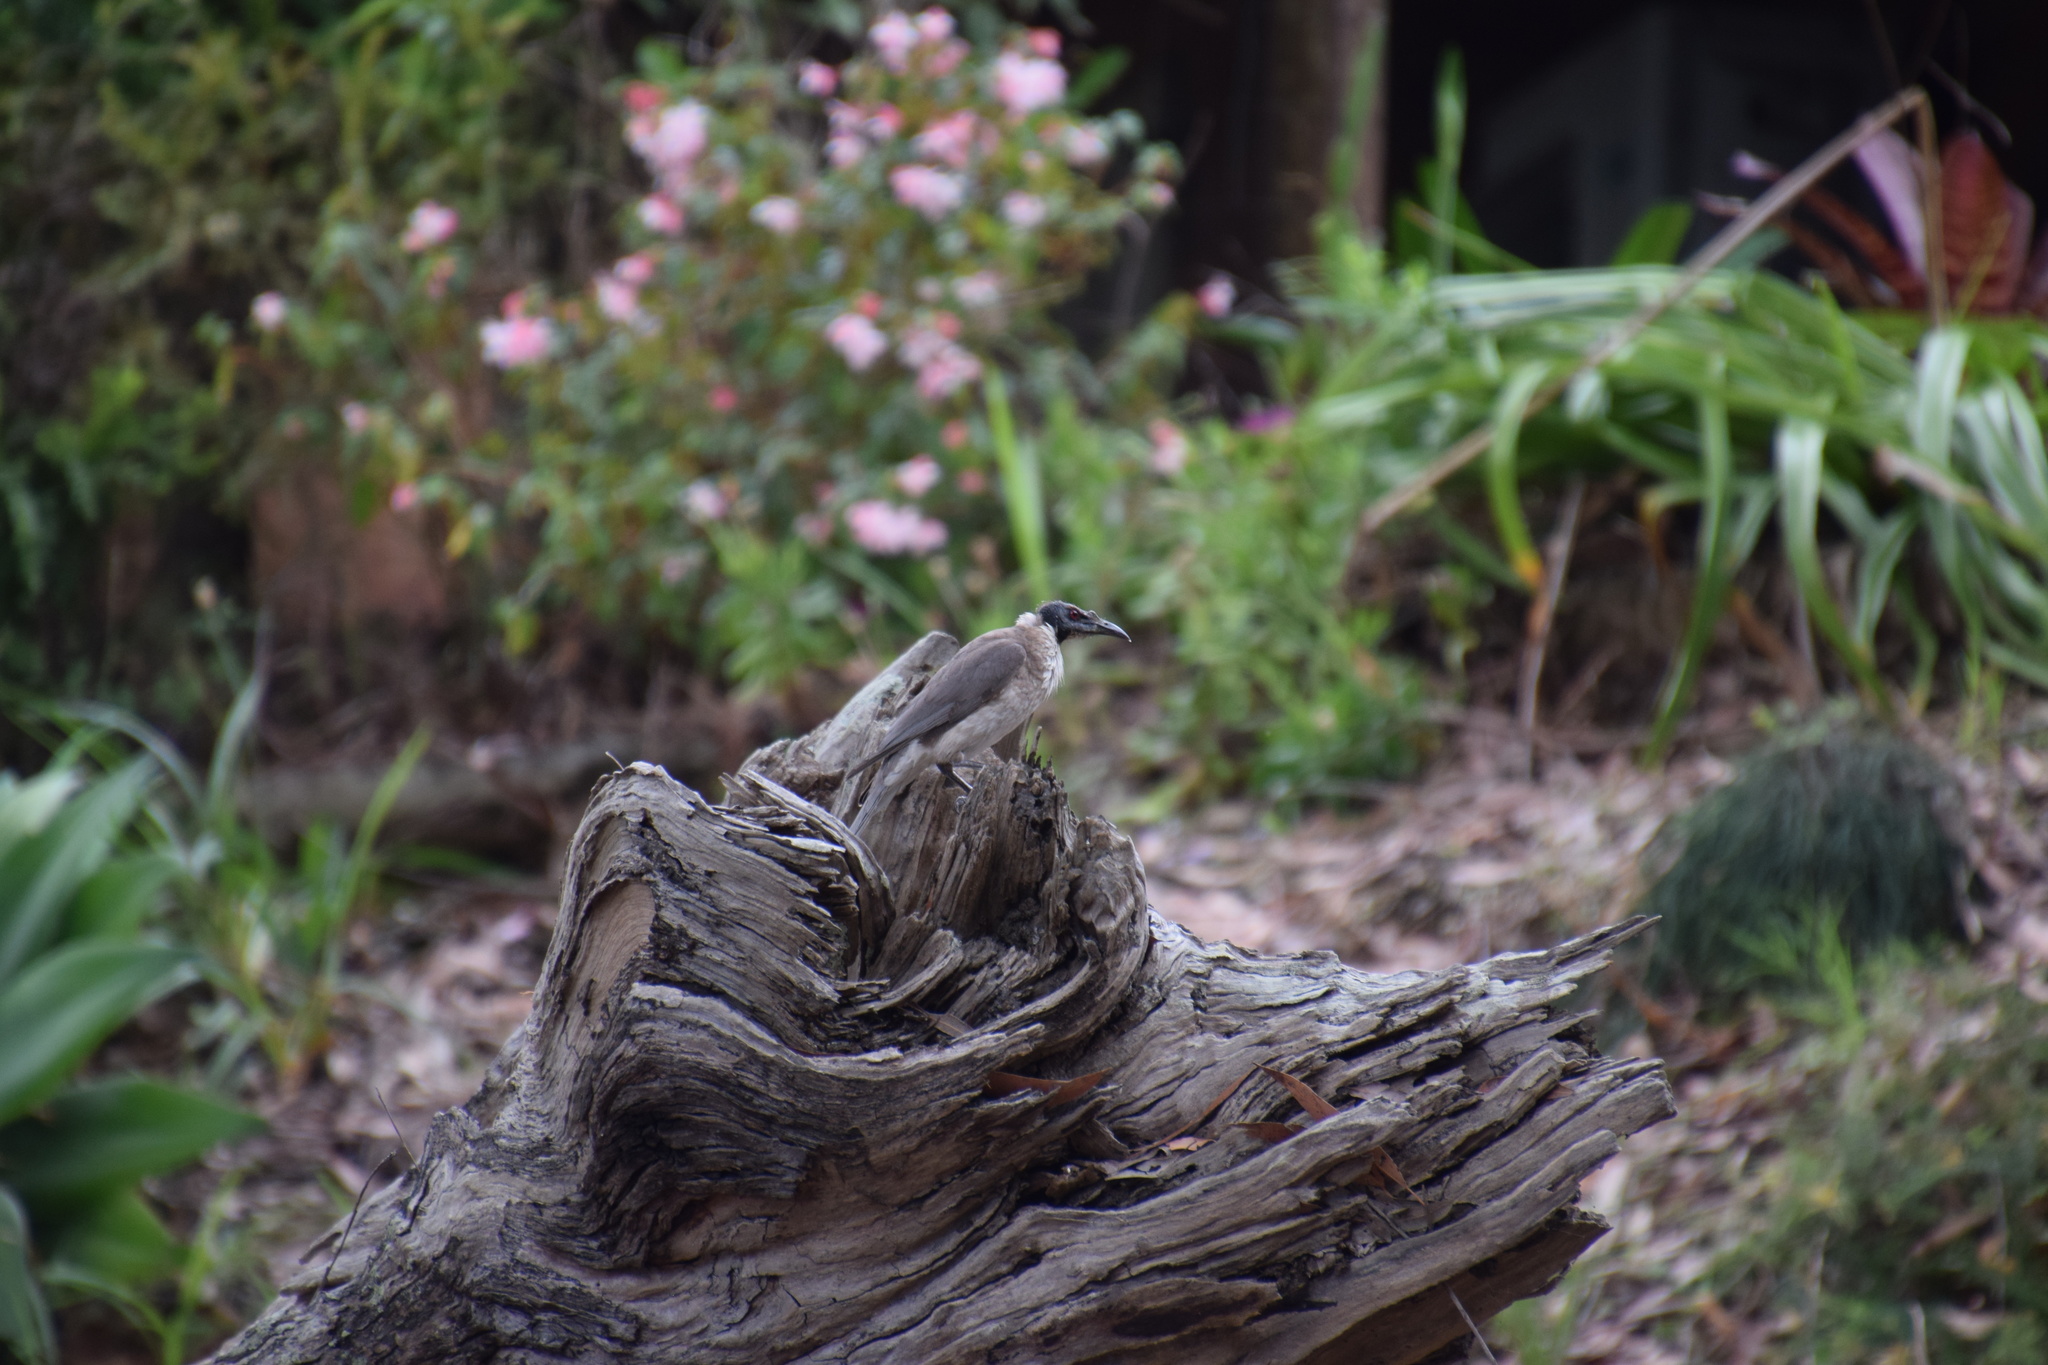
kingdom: Animalia
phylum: Chordata
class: Aves
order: Passeriformes
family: Meliphagidae
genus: Philemon
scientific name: Philemon corniculatus
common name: Noisy friarbird
